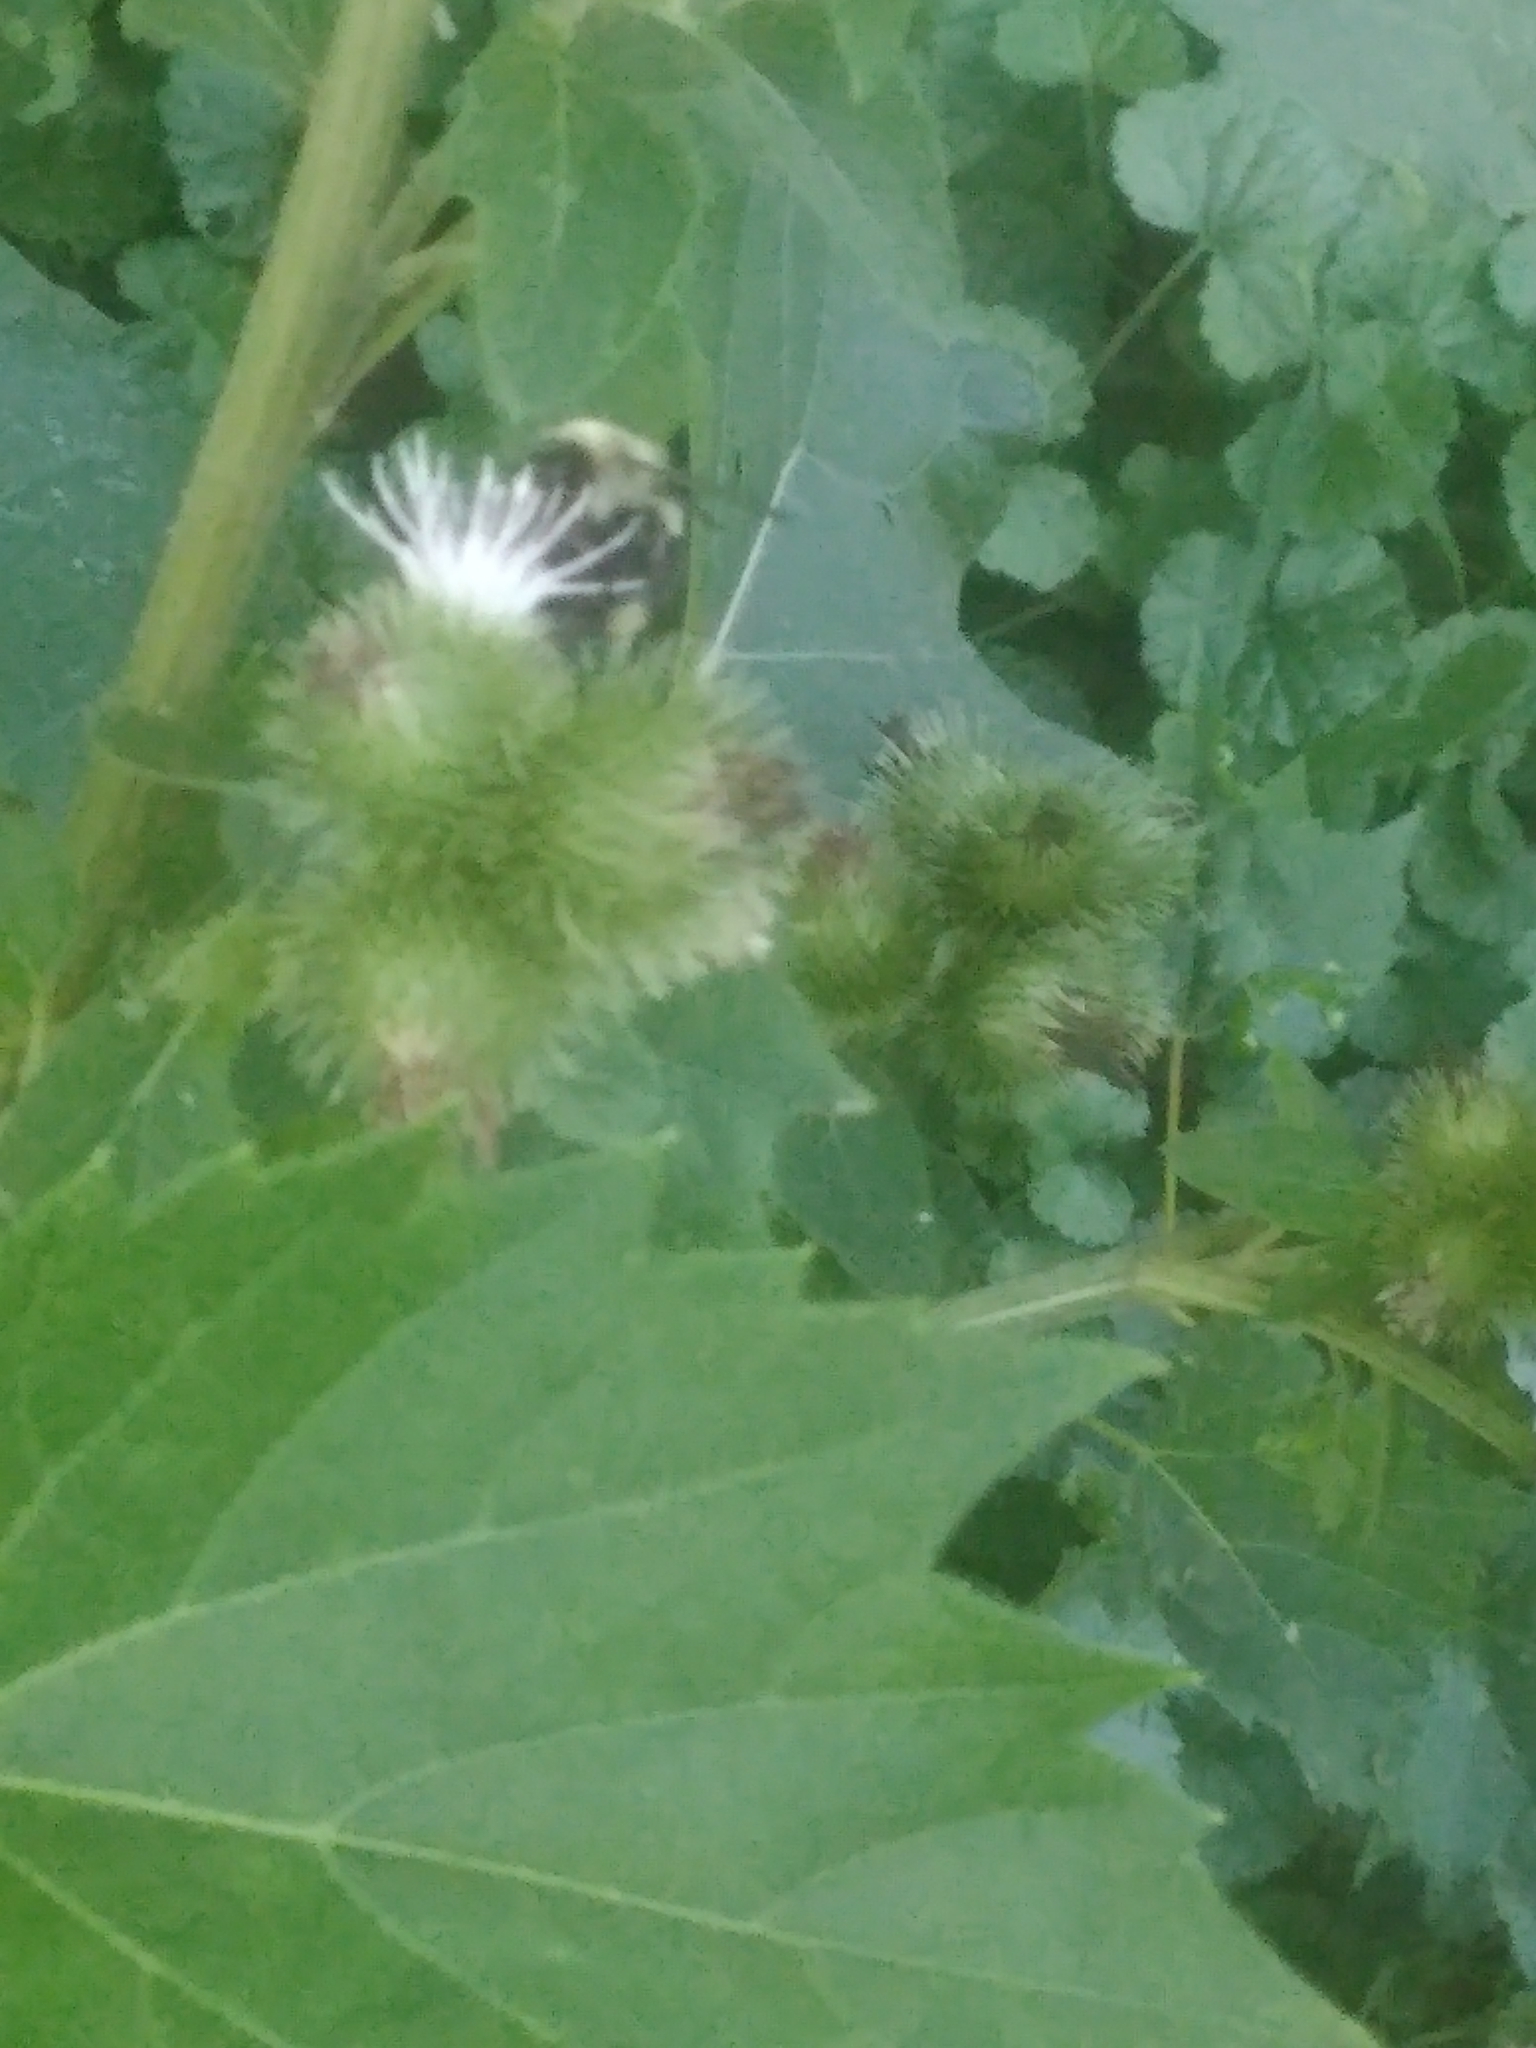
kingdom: Animalia
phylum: Arthropoda
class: Insecta
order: Hymenoptera
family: Apidae
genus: Bombus
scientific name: Bombus
